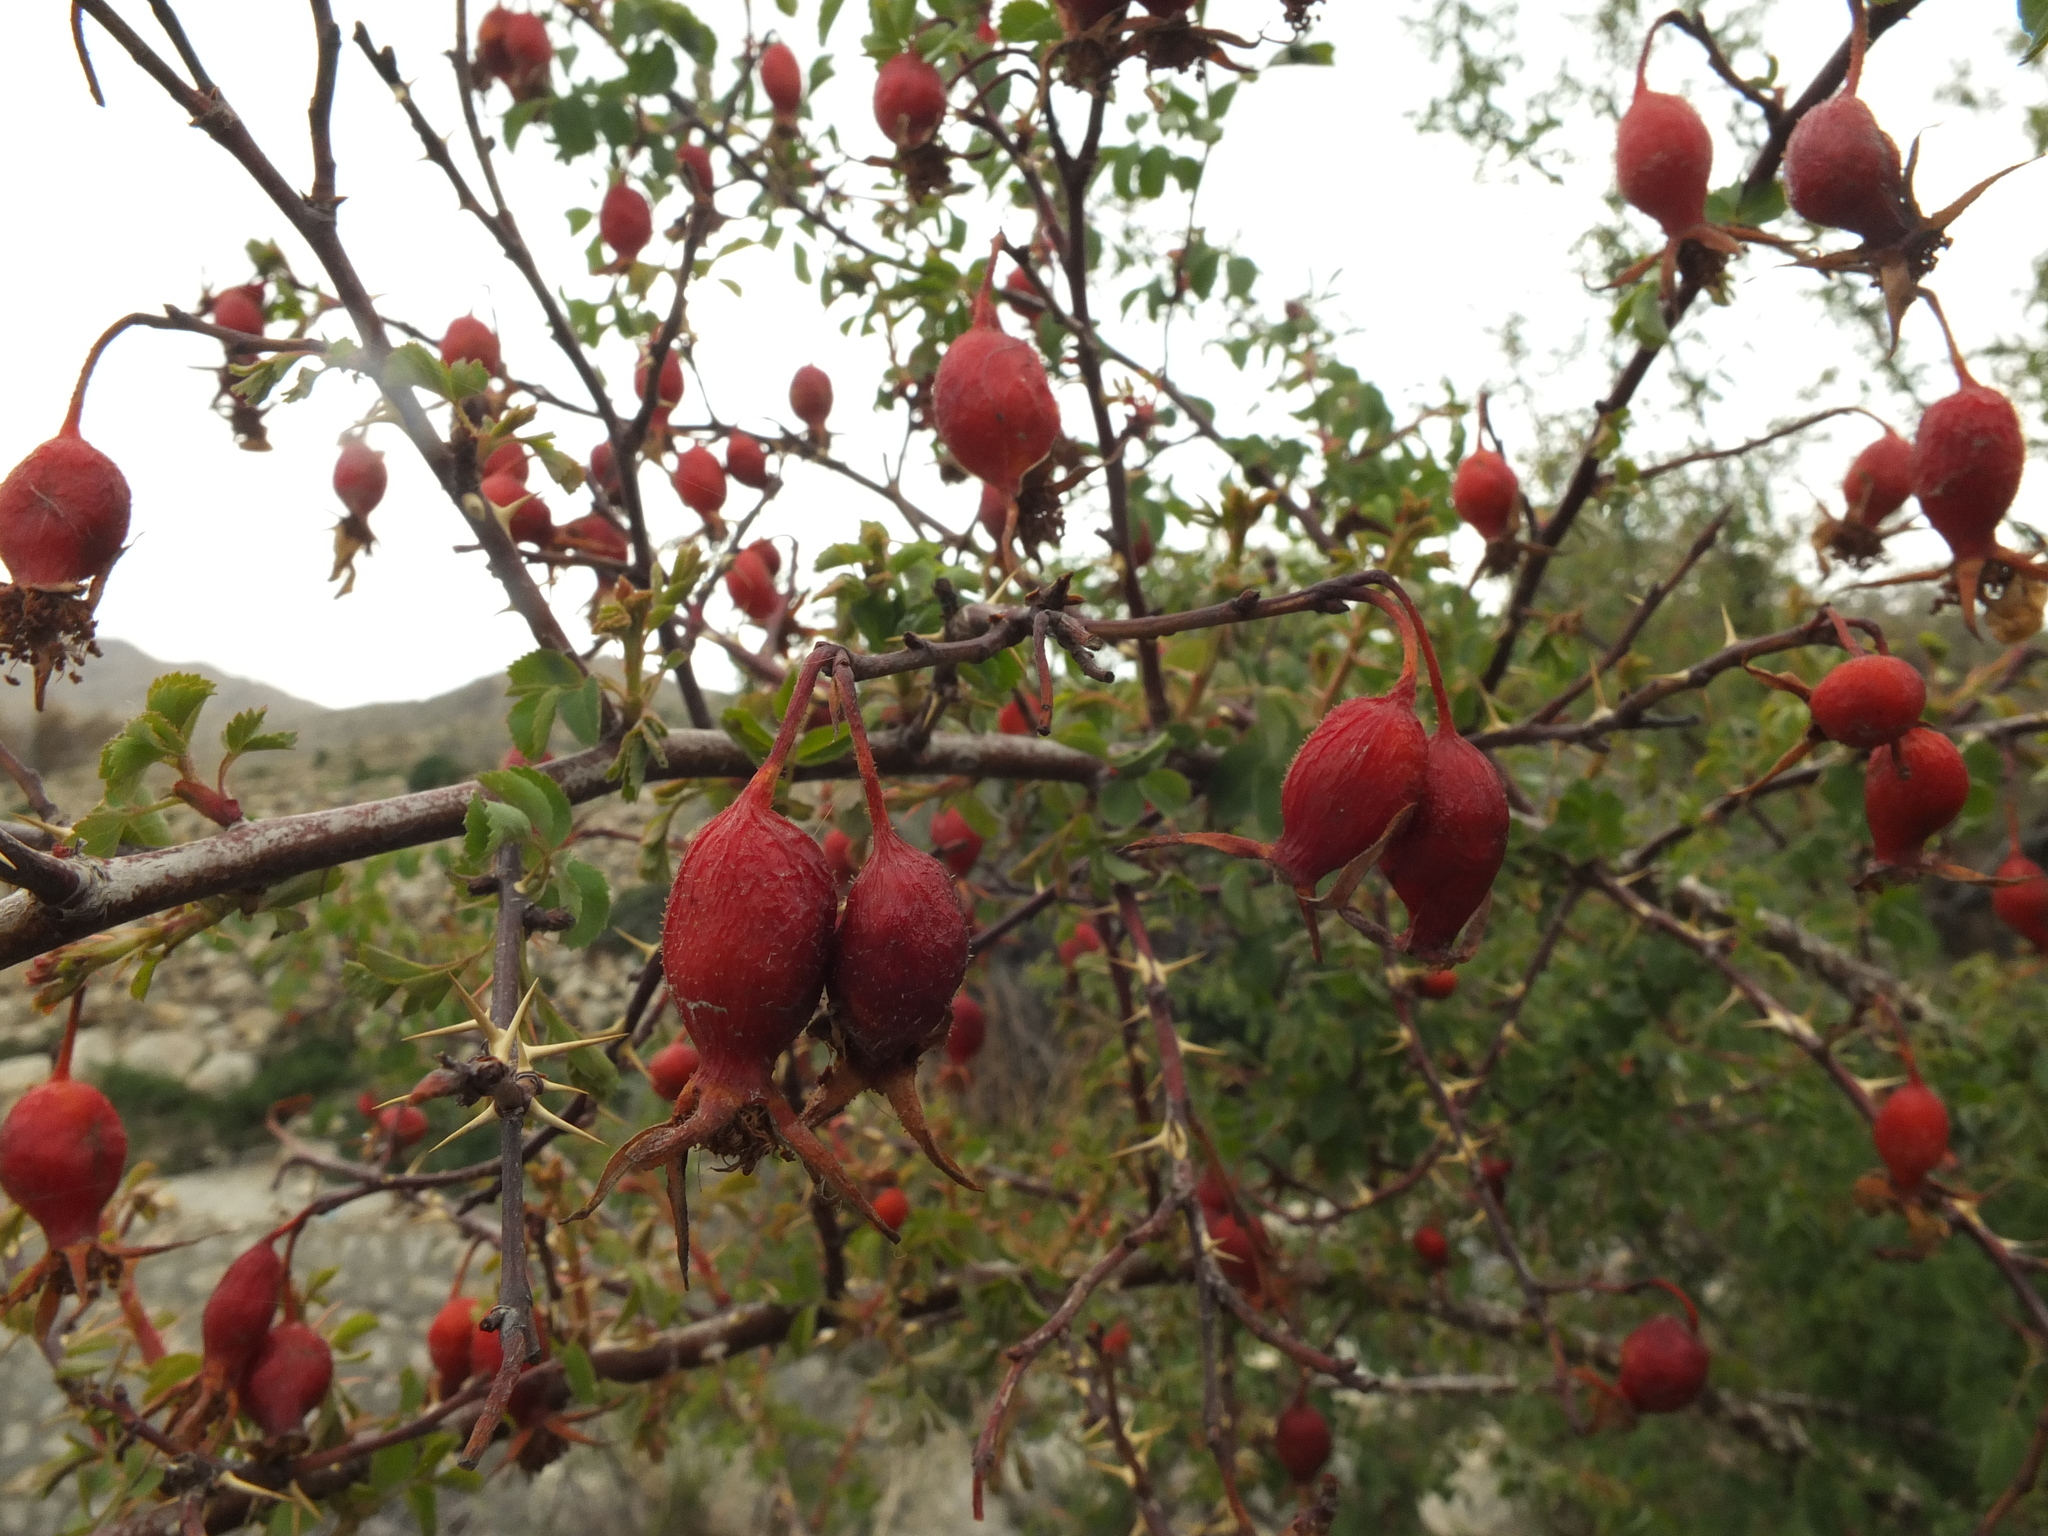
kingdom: Plantae
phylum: Tracheophyta
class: Magnoliopsida
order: Rosales
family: Rosaceae
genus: Rosa
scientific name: Rosa webbiana
